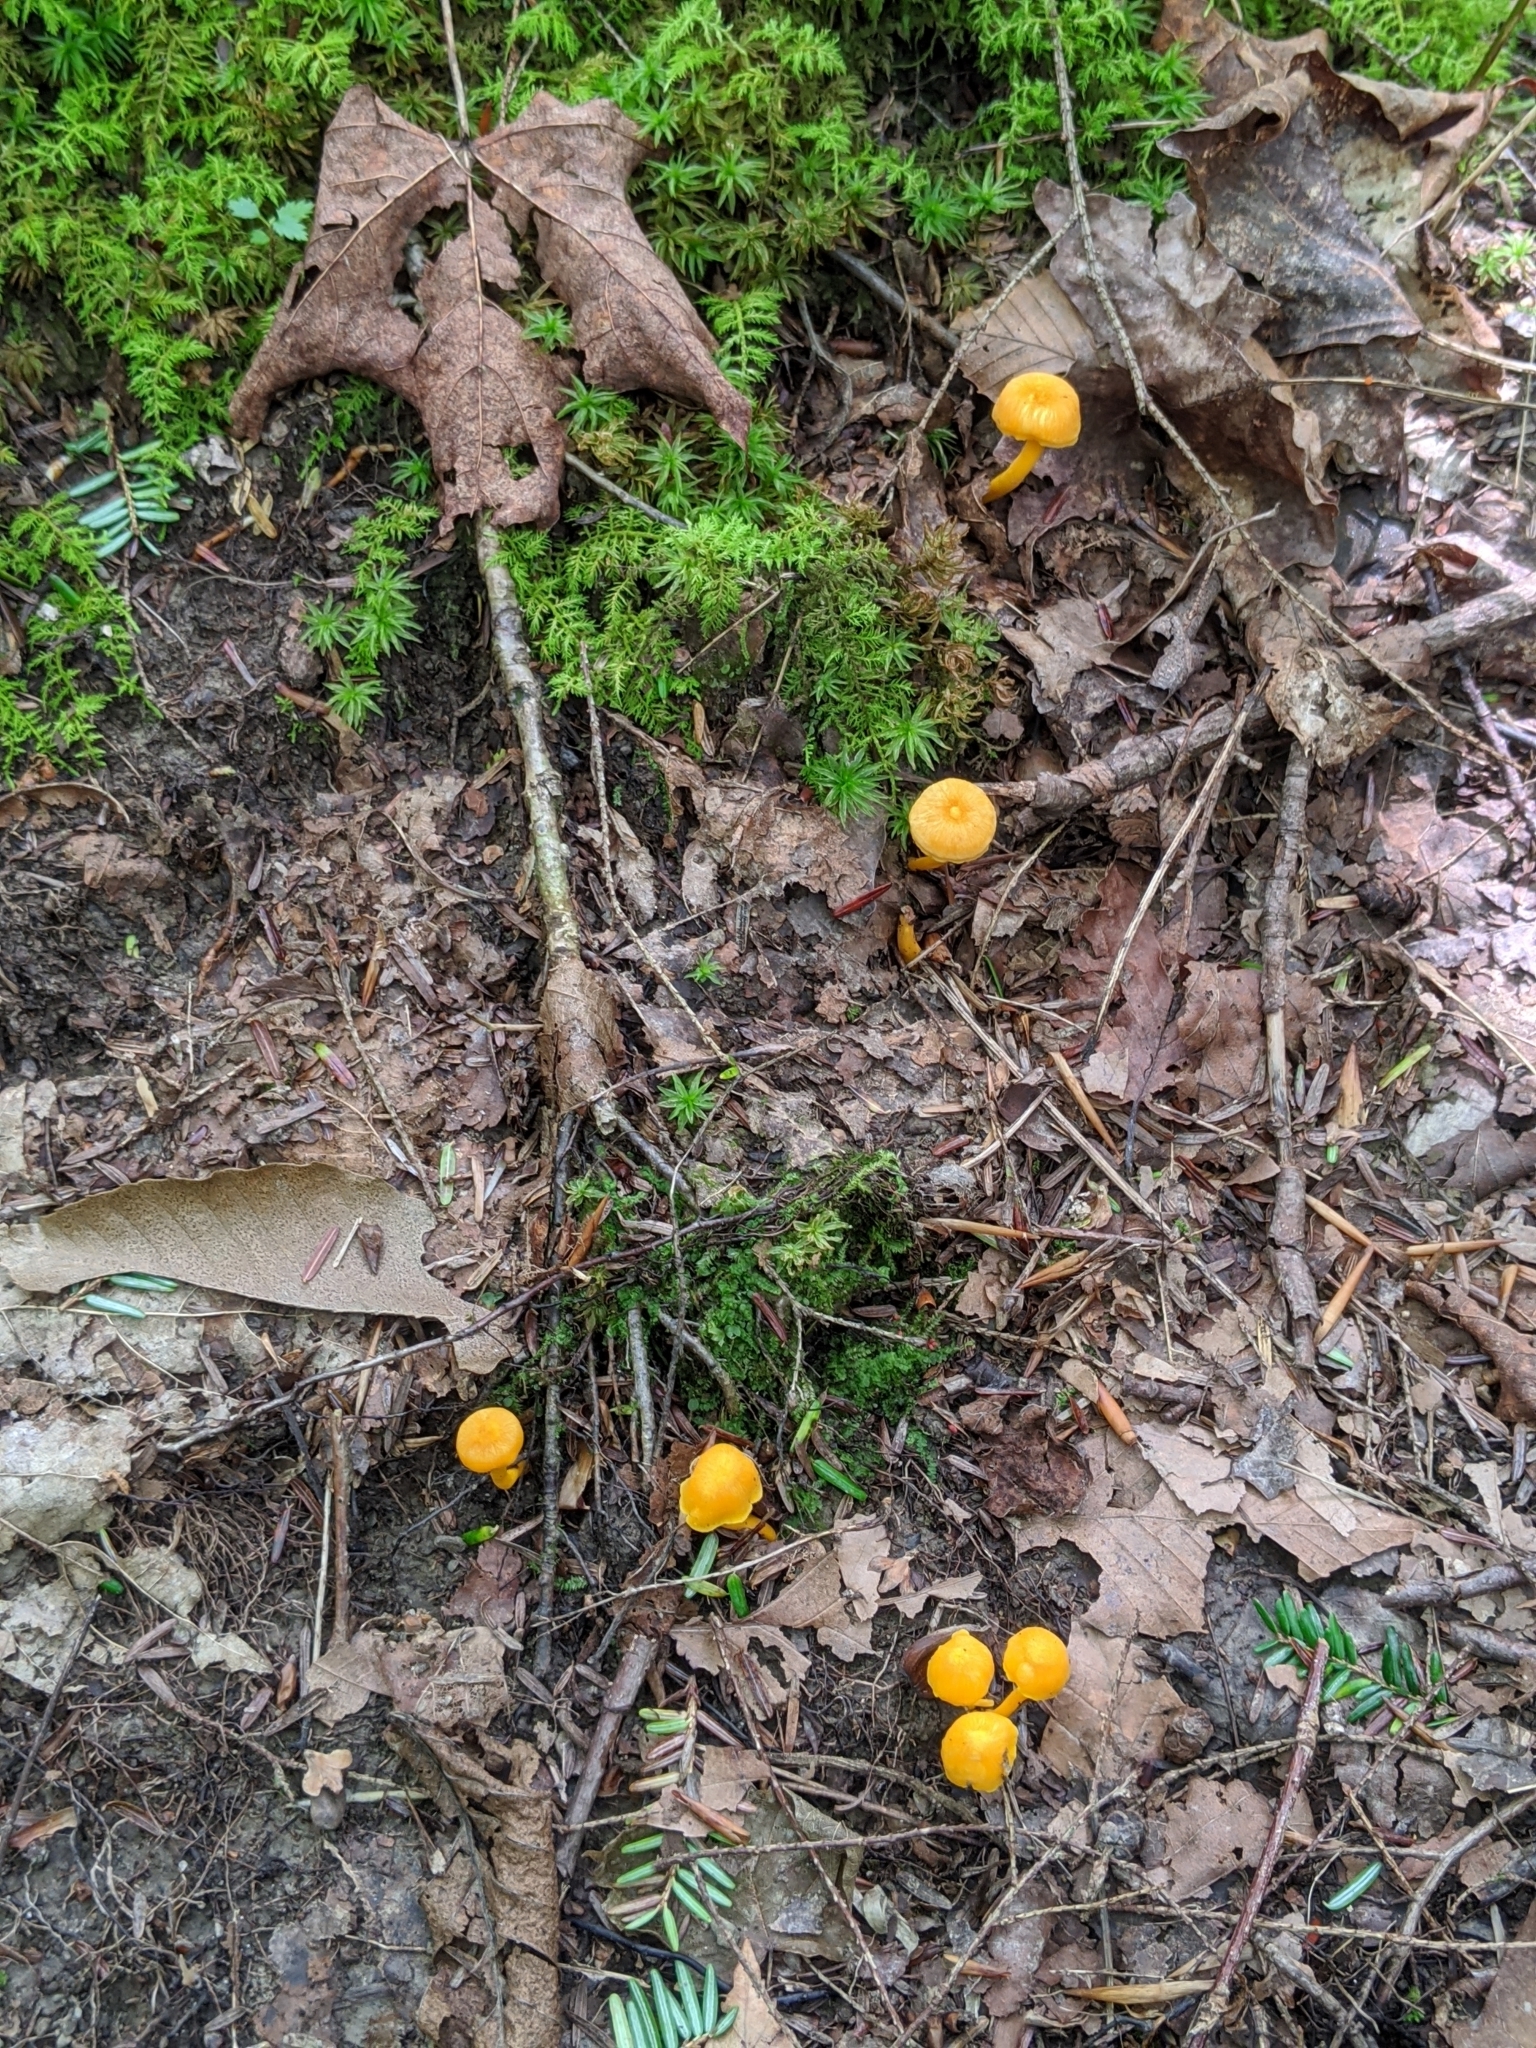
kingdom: Fungi
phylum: Basidiomycota
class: Agaricomycetes
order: Cantharellales
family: Hydnaceae
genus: Cantharellus
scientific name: Cantharellus minor
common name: Small chanterelle
